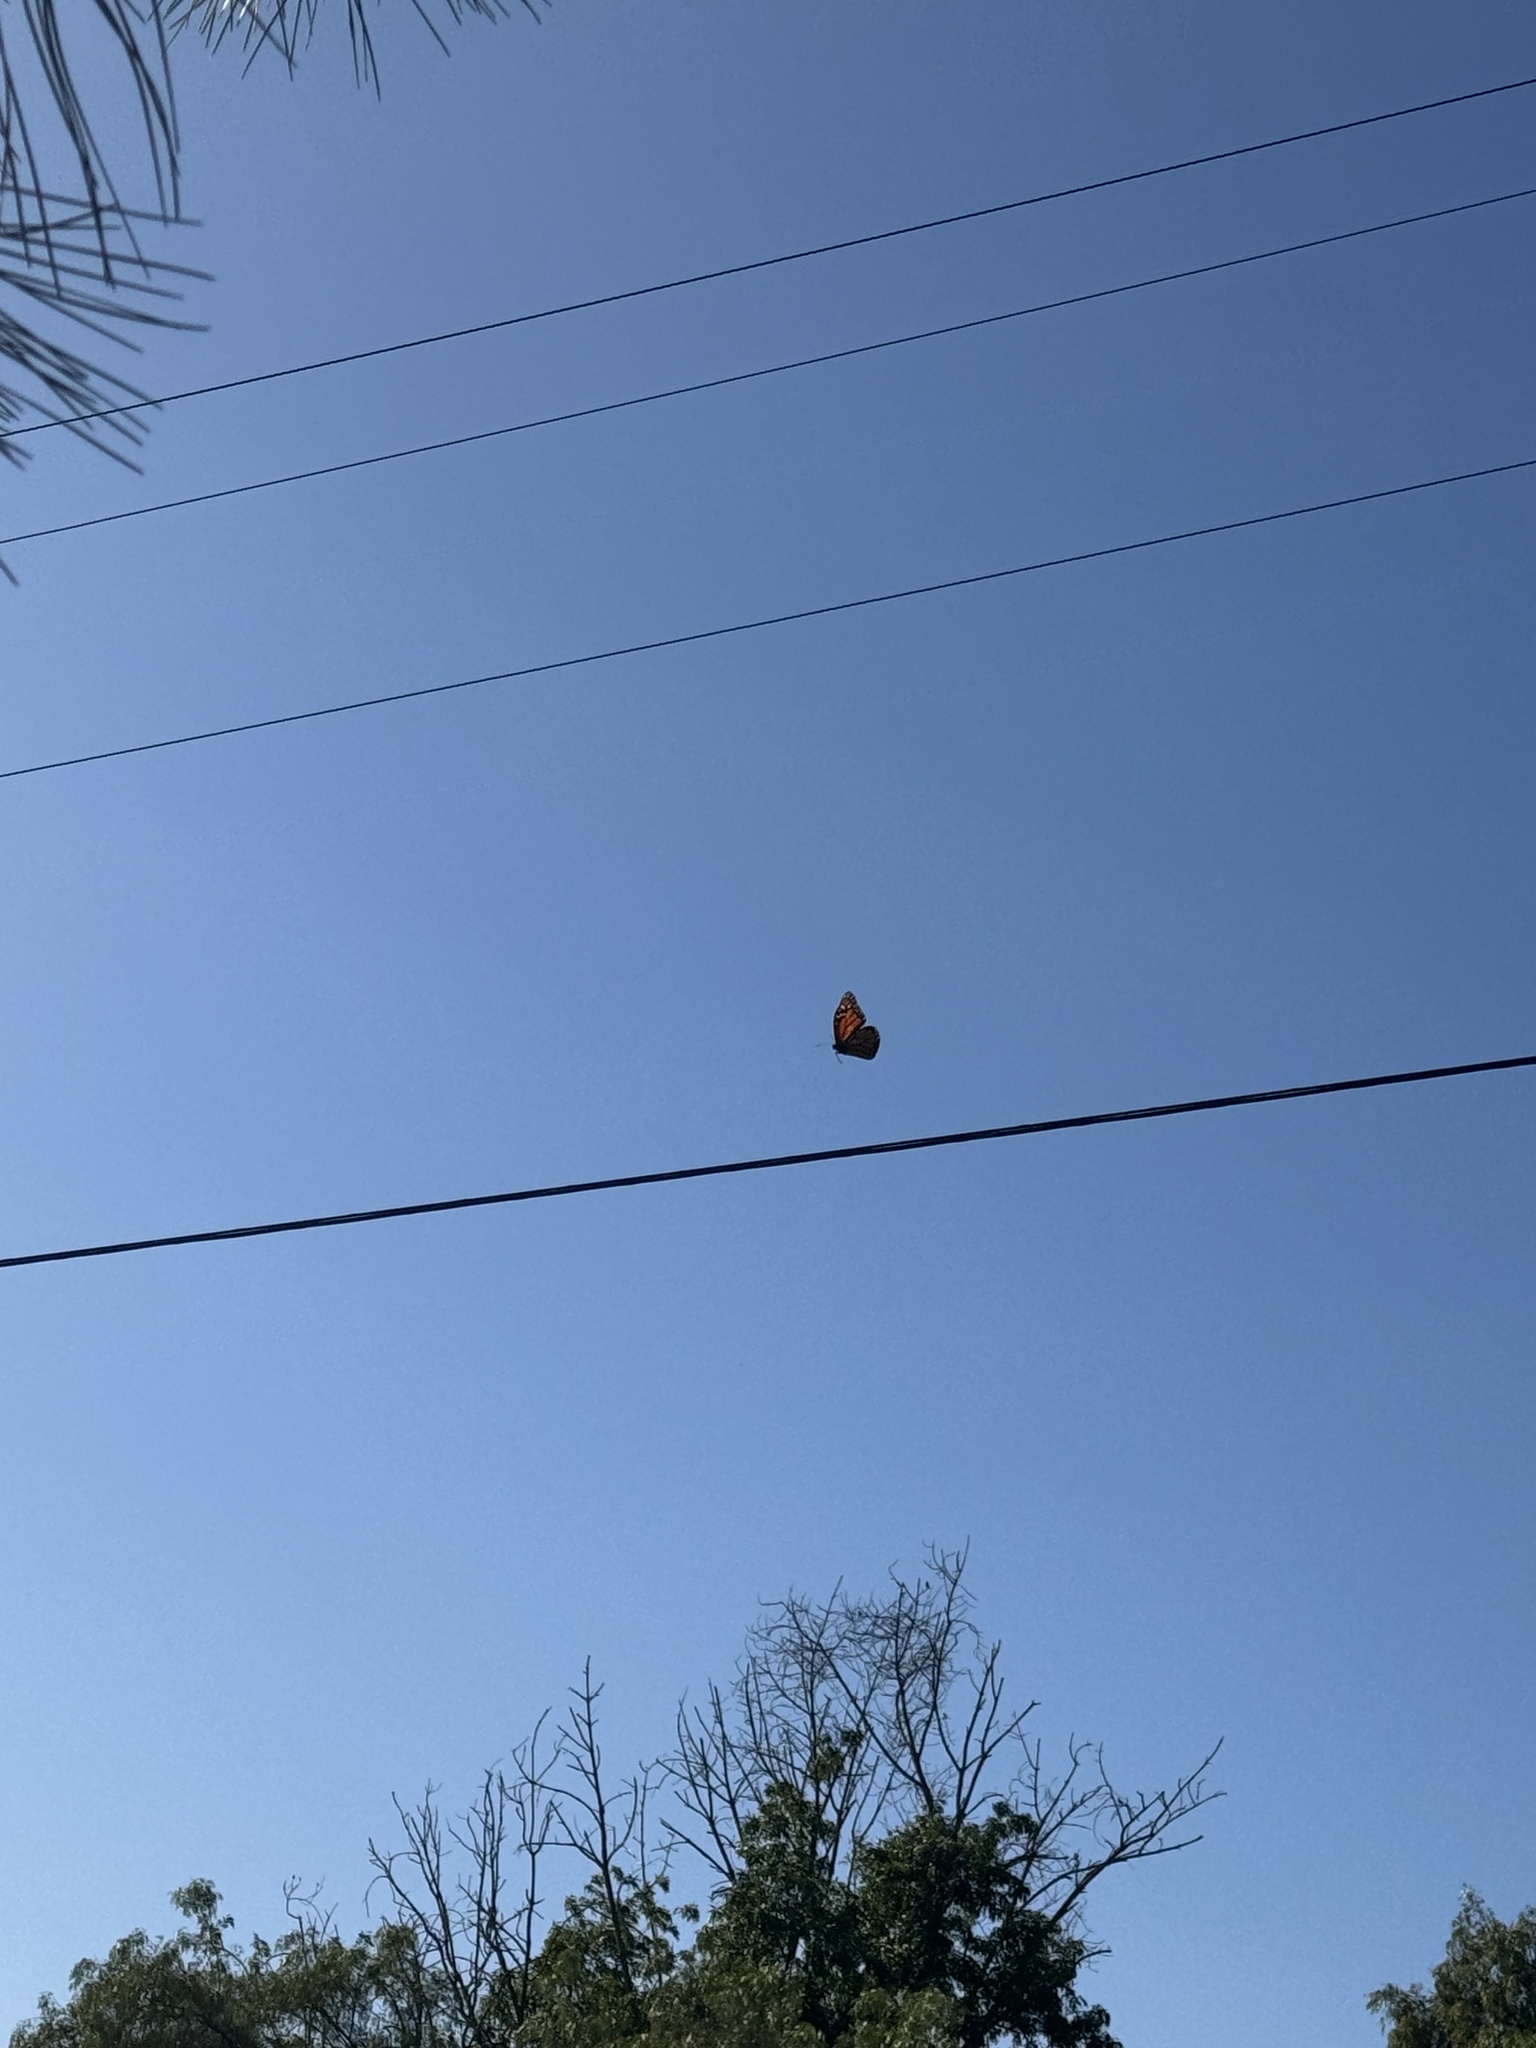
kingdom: Animalia
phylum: Arthropoda
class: Insecta
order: Lepidoptera
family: Nymphalidae
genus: Danaus
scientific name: Danaus plexippus
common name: Monarch
